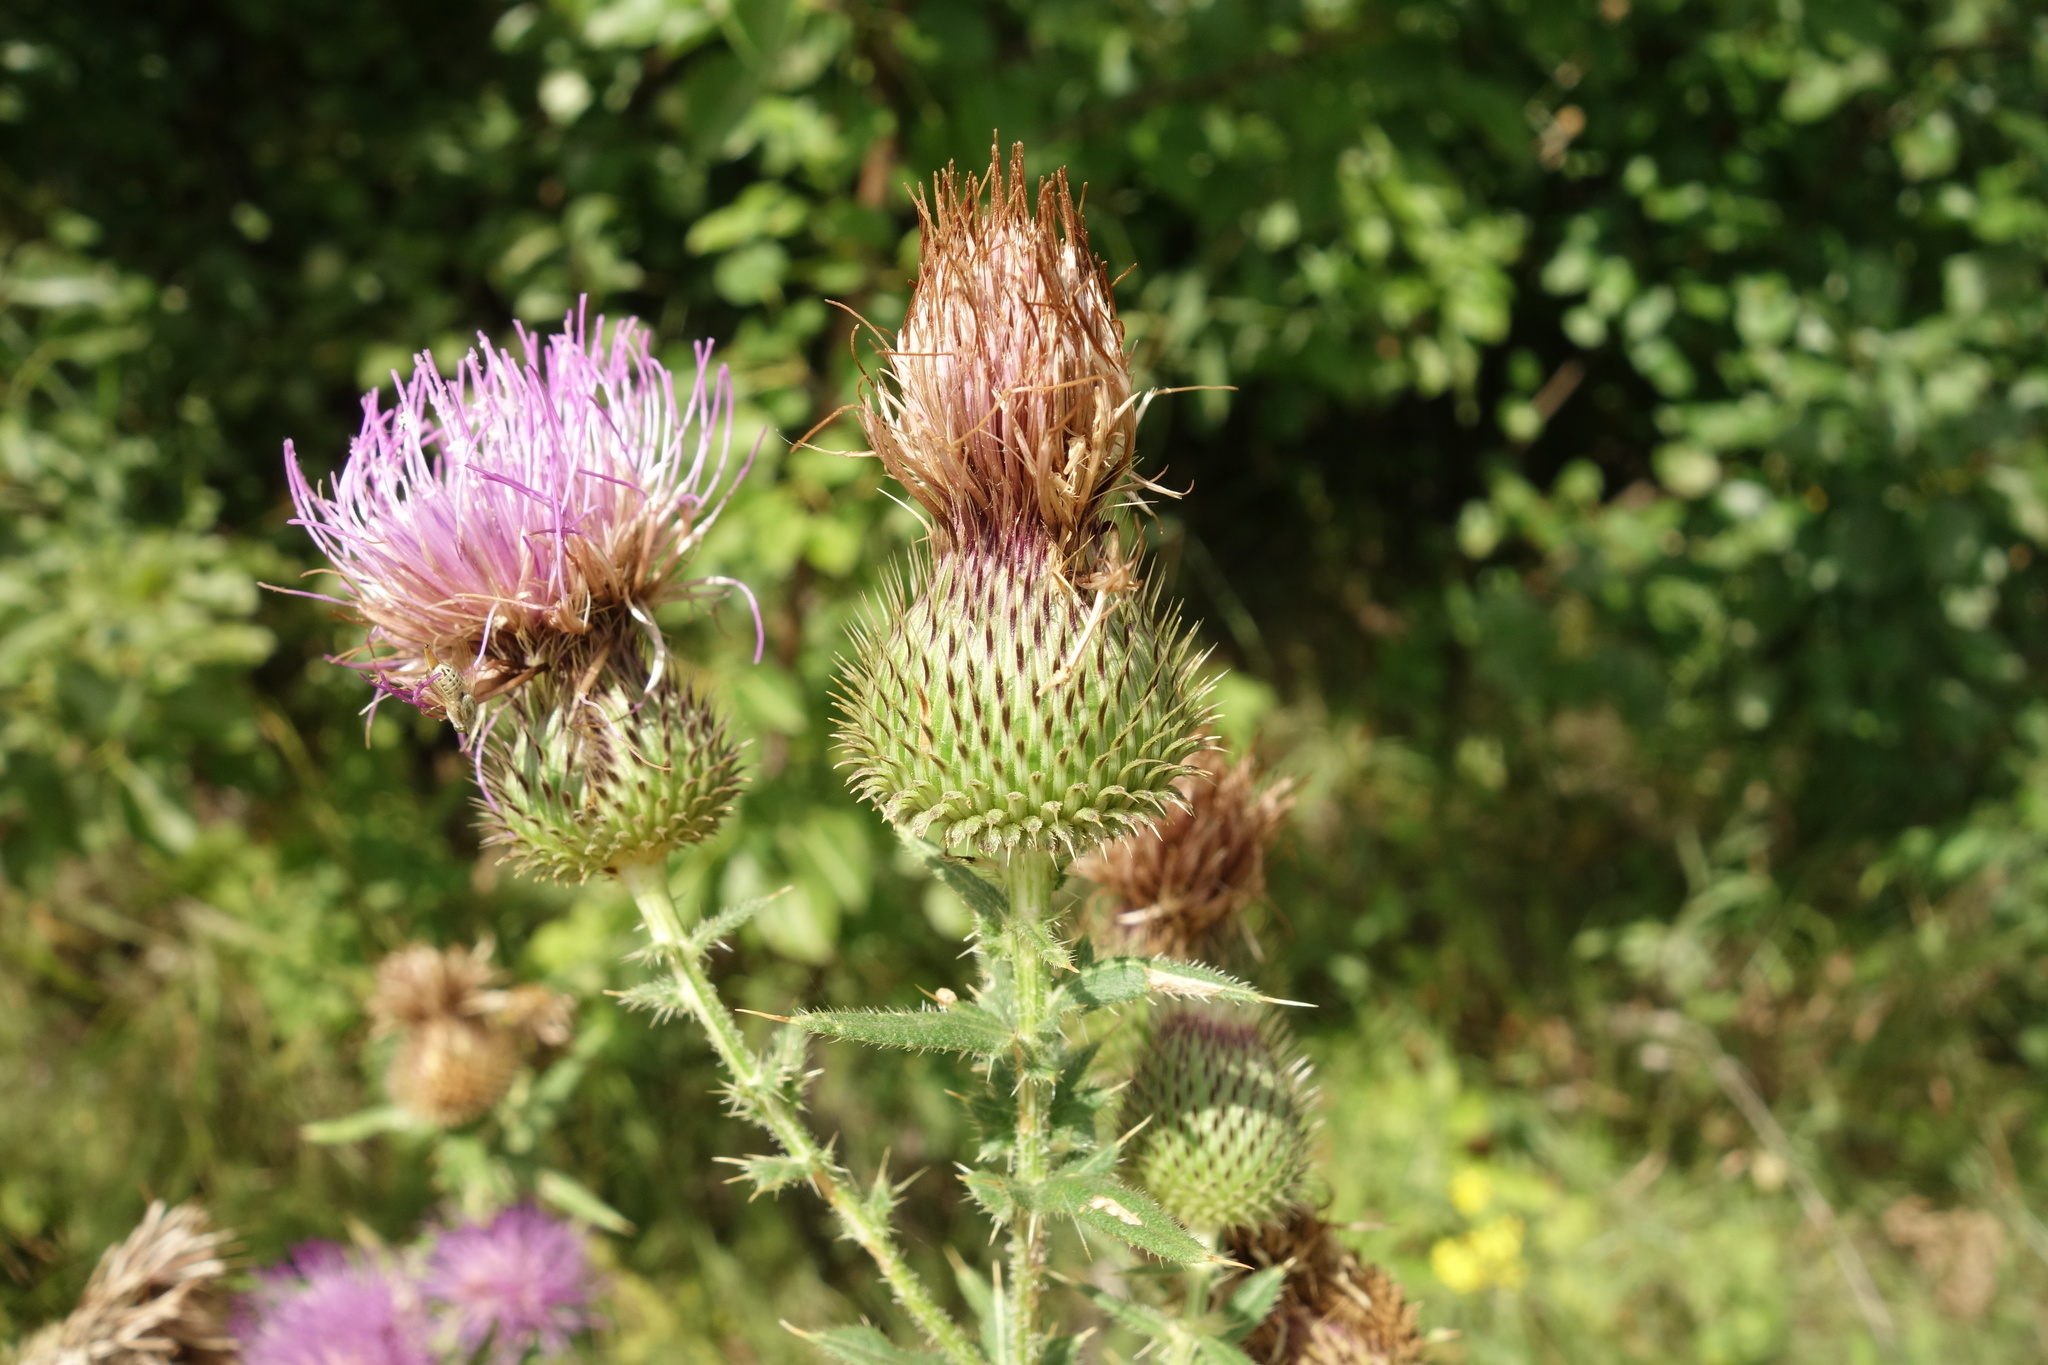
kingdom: Plantae
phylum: Tracheophyta
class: Magnoliopsida
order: Asterales
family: Asteraceae
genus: Cirsium
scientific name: Cirsium serrulatum
